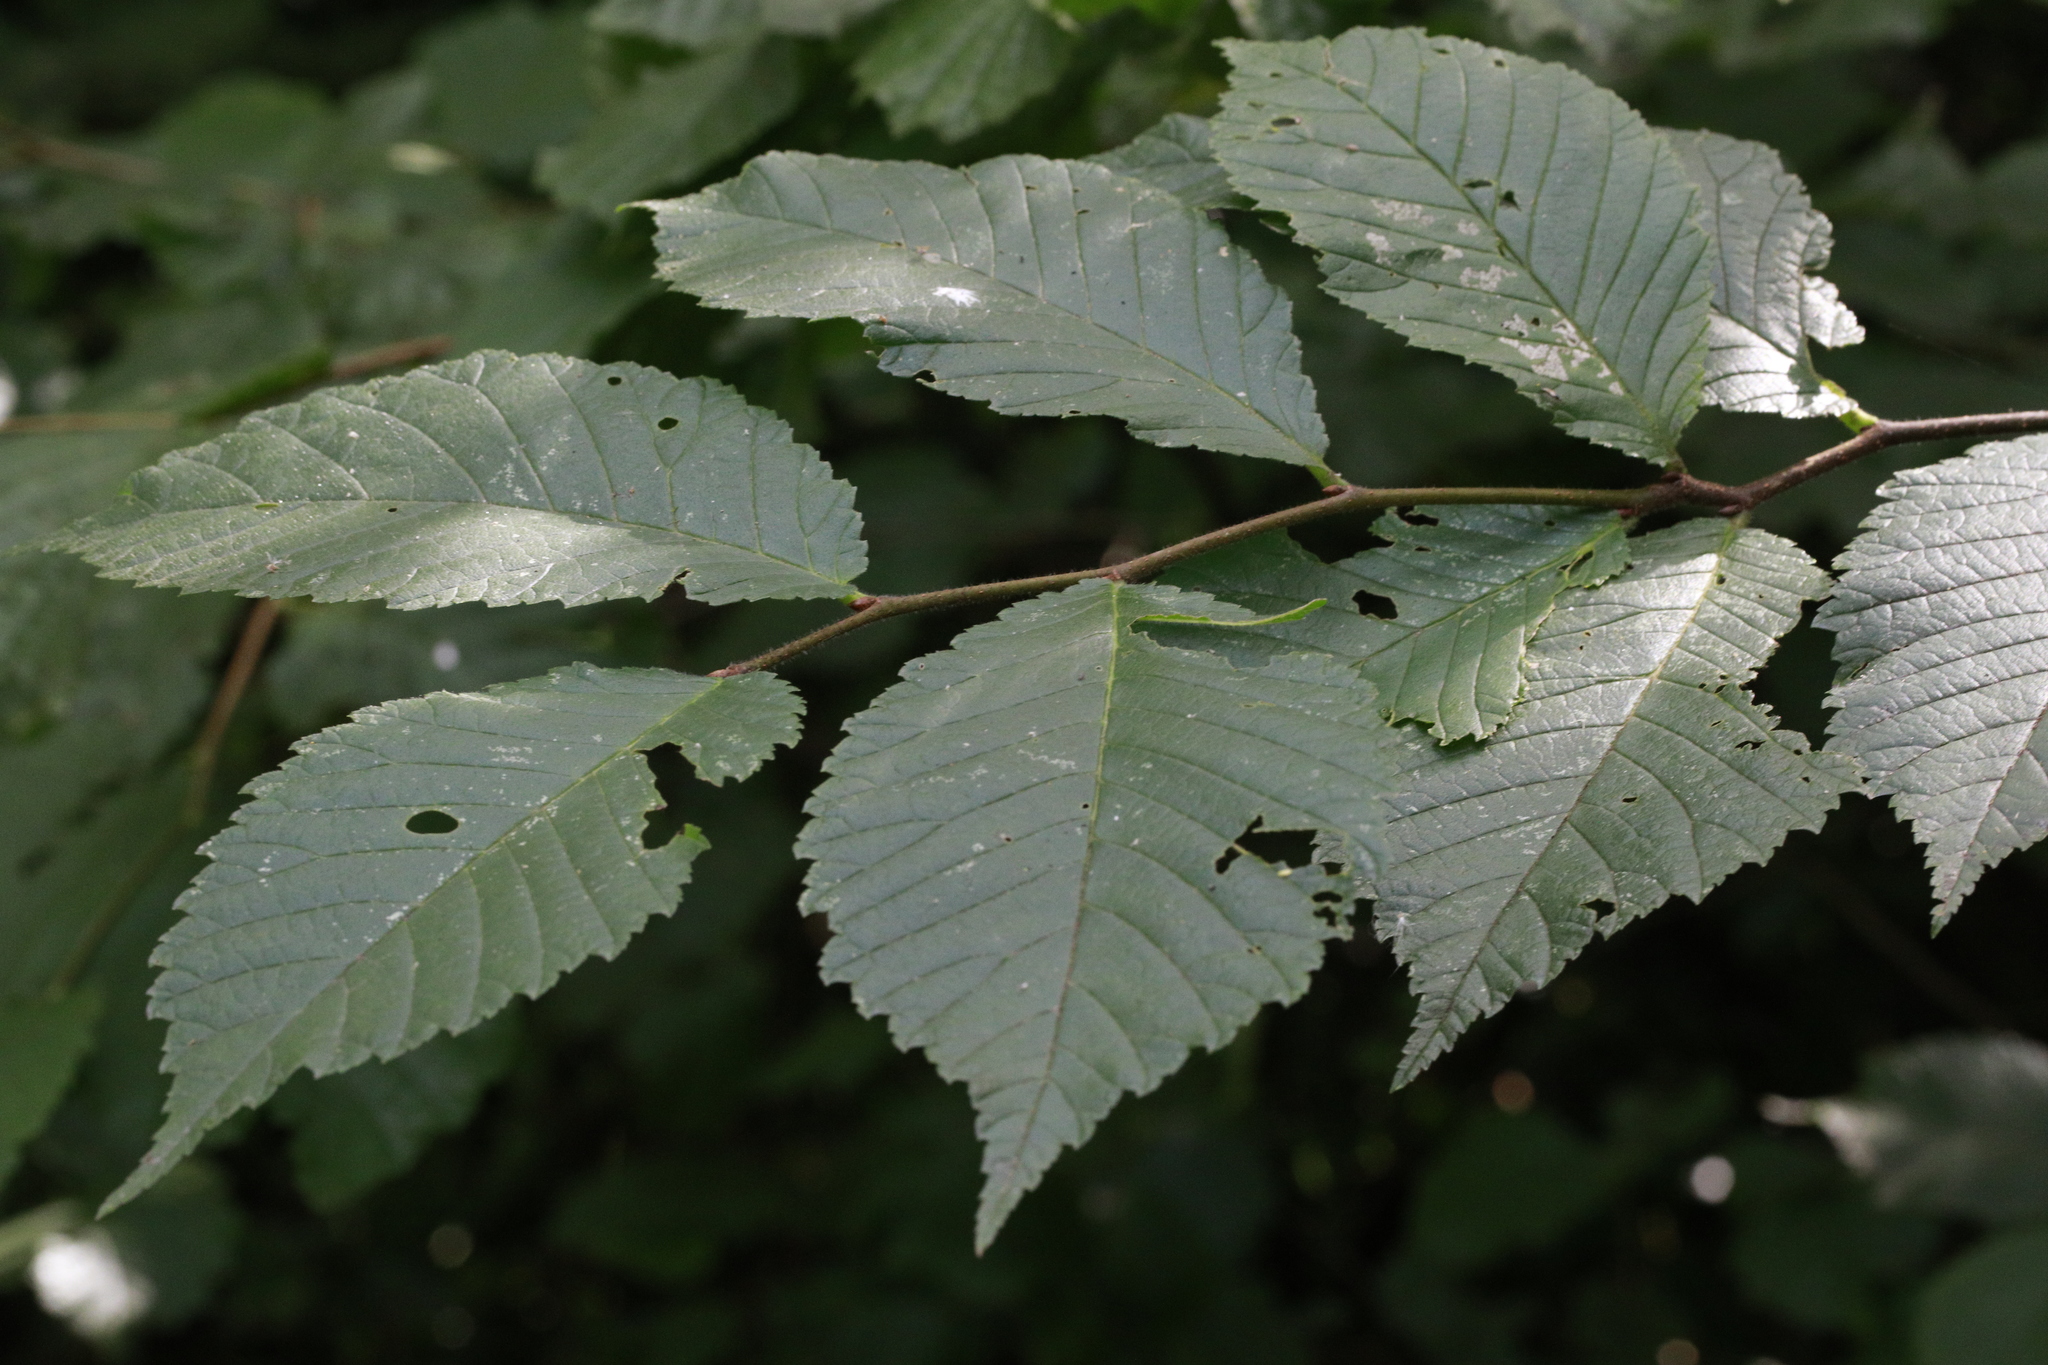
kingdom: Plantae
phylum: Tracheophyta
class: Magnoliopsida
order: Rosales
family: Ulmaceae
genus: Ulmus
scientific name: Ulmus glabra
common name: Wych elm
